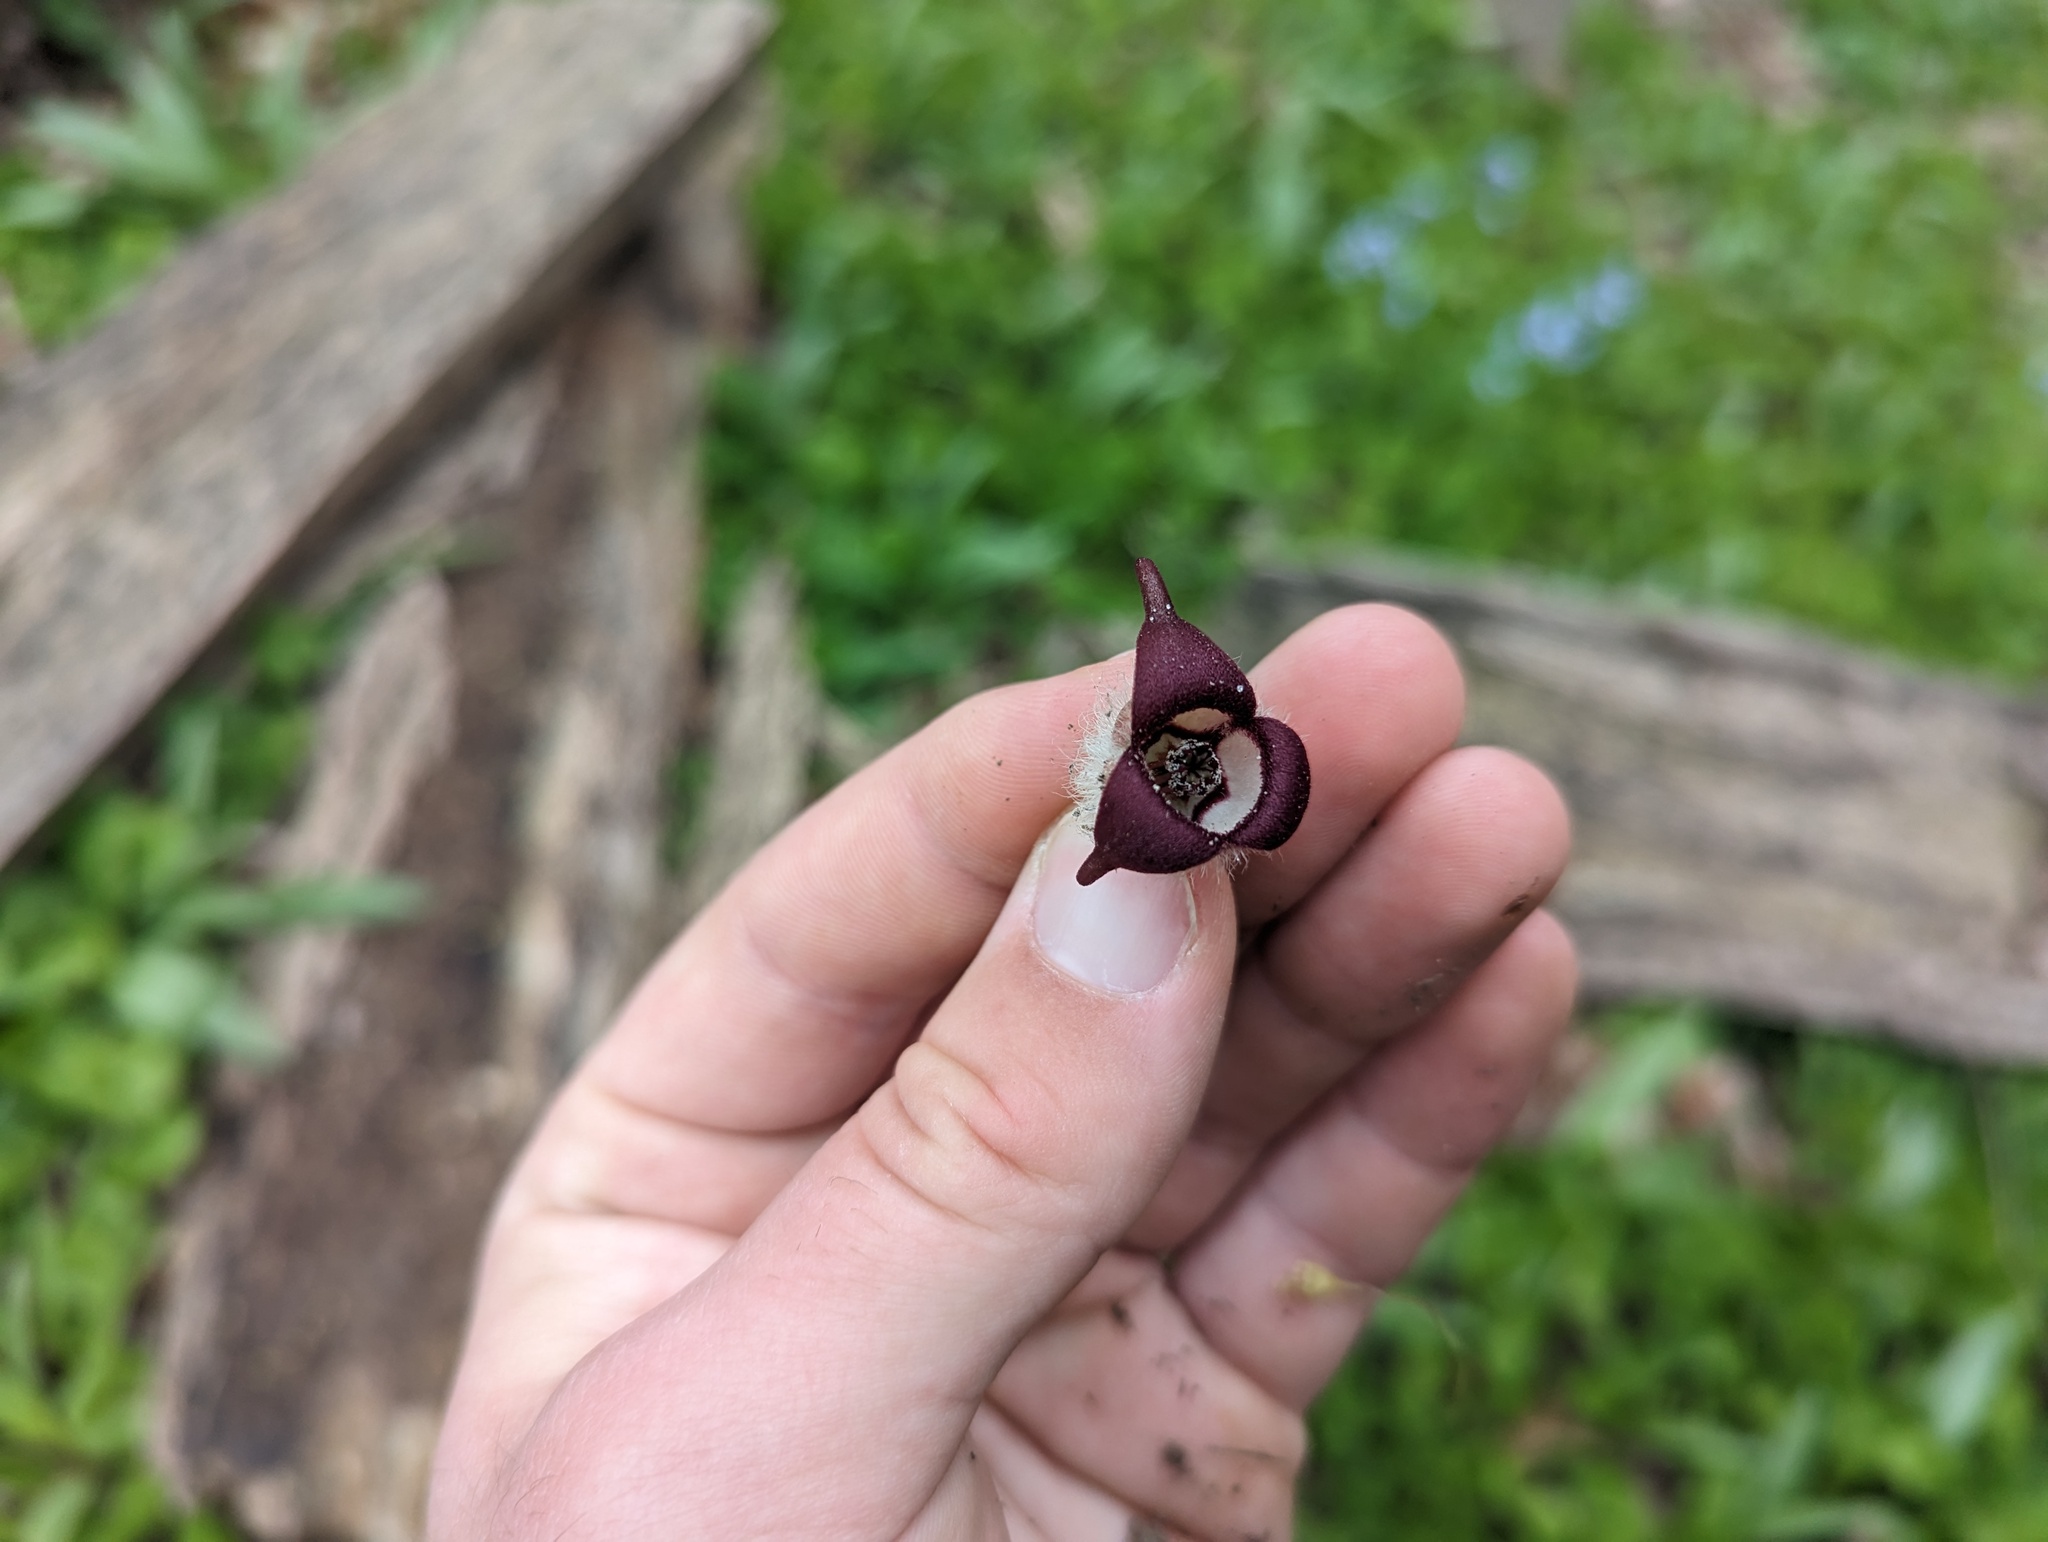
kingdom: Plantae
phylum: Tracheophyta
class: Magnoliopsida
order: Piperales
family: Aristolochiaceae
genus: Asarum
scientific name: Asarum canadense
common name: Wild ginger
